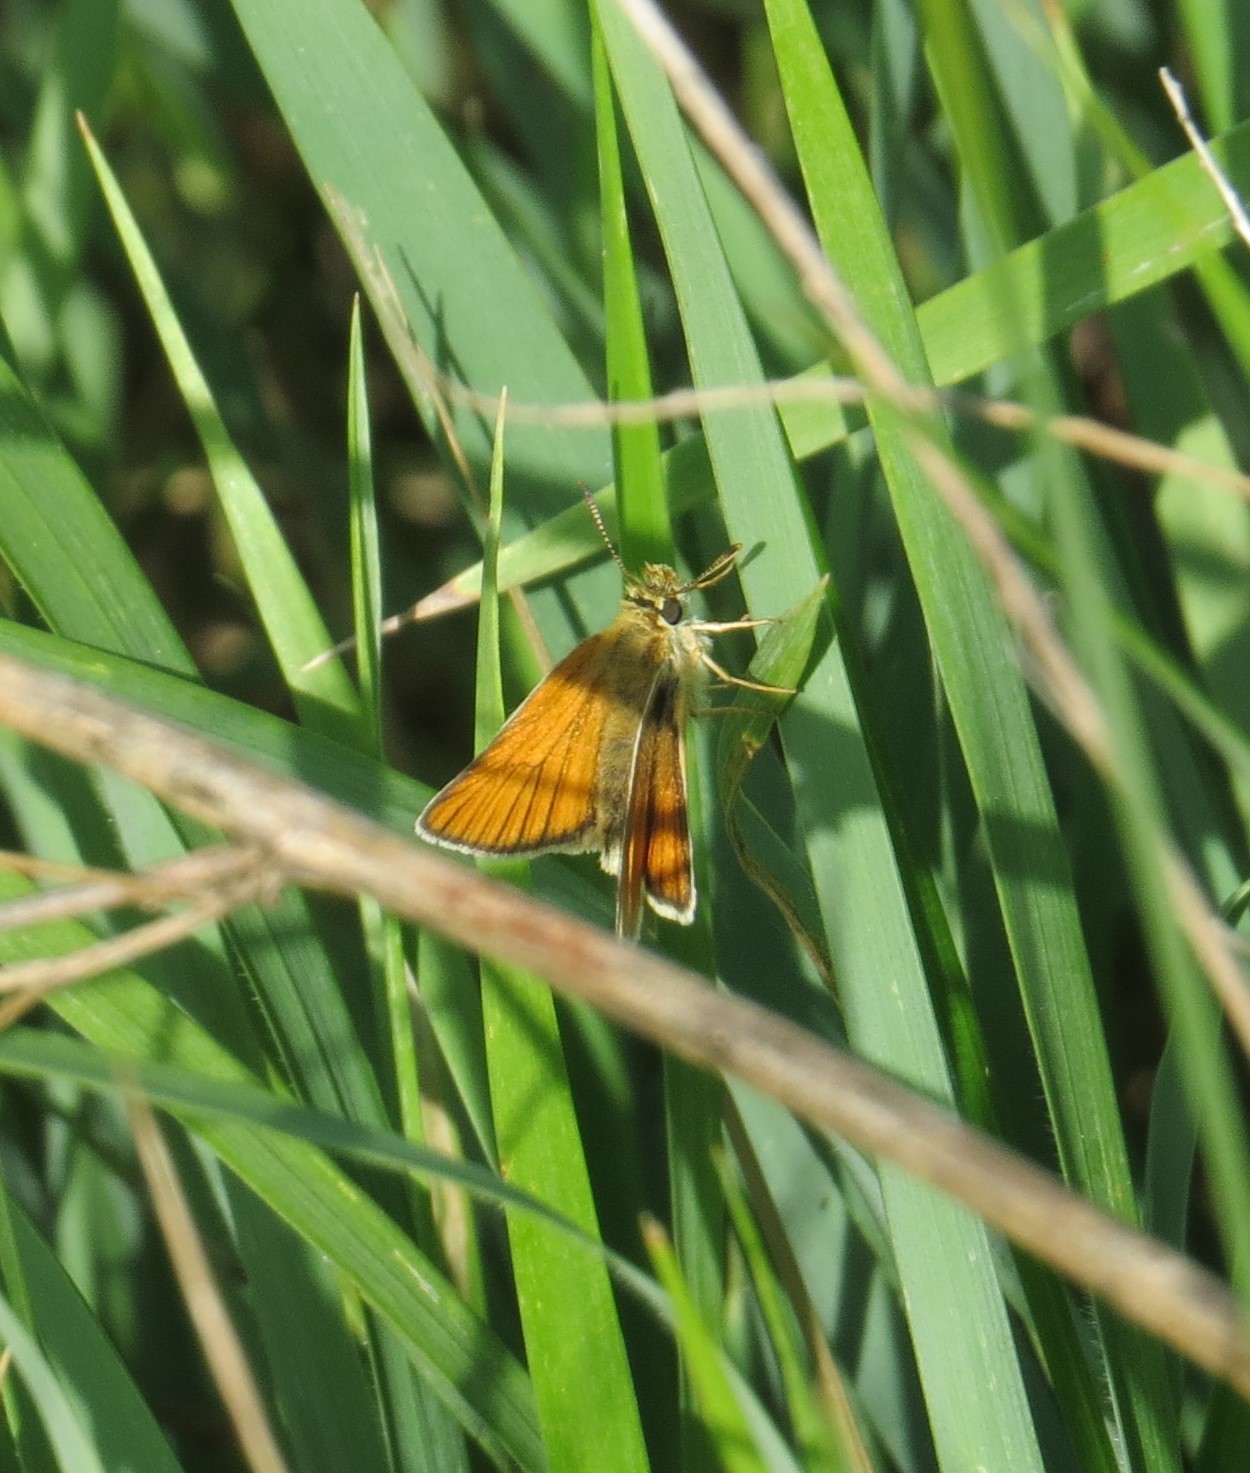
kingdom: Animalia
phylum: Arthropoda
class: Insecta
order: Lepidoptera
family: Hesperiidae
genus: Thymelicus
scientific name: Thymelicus lineola
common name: Essex skipper
